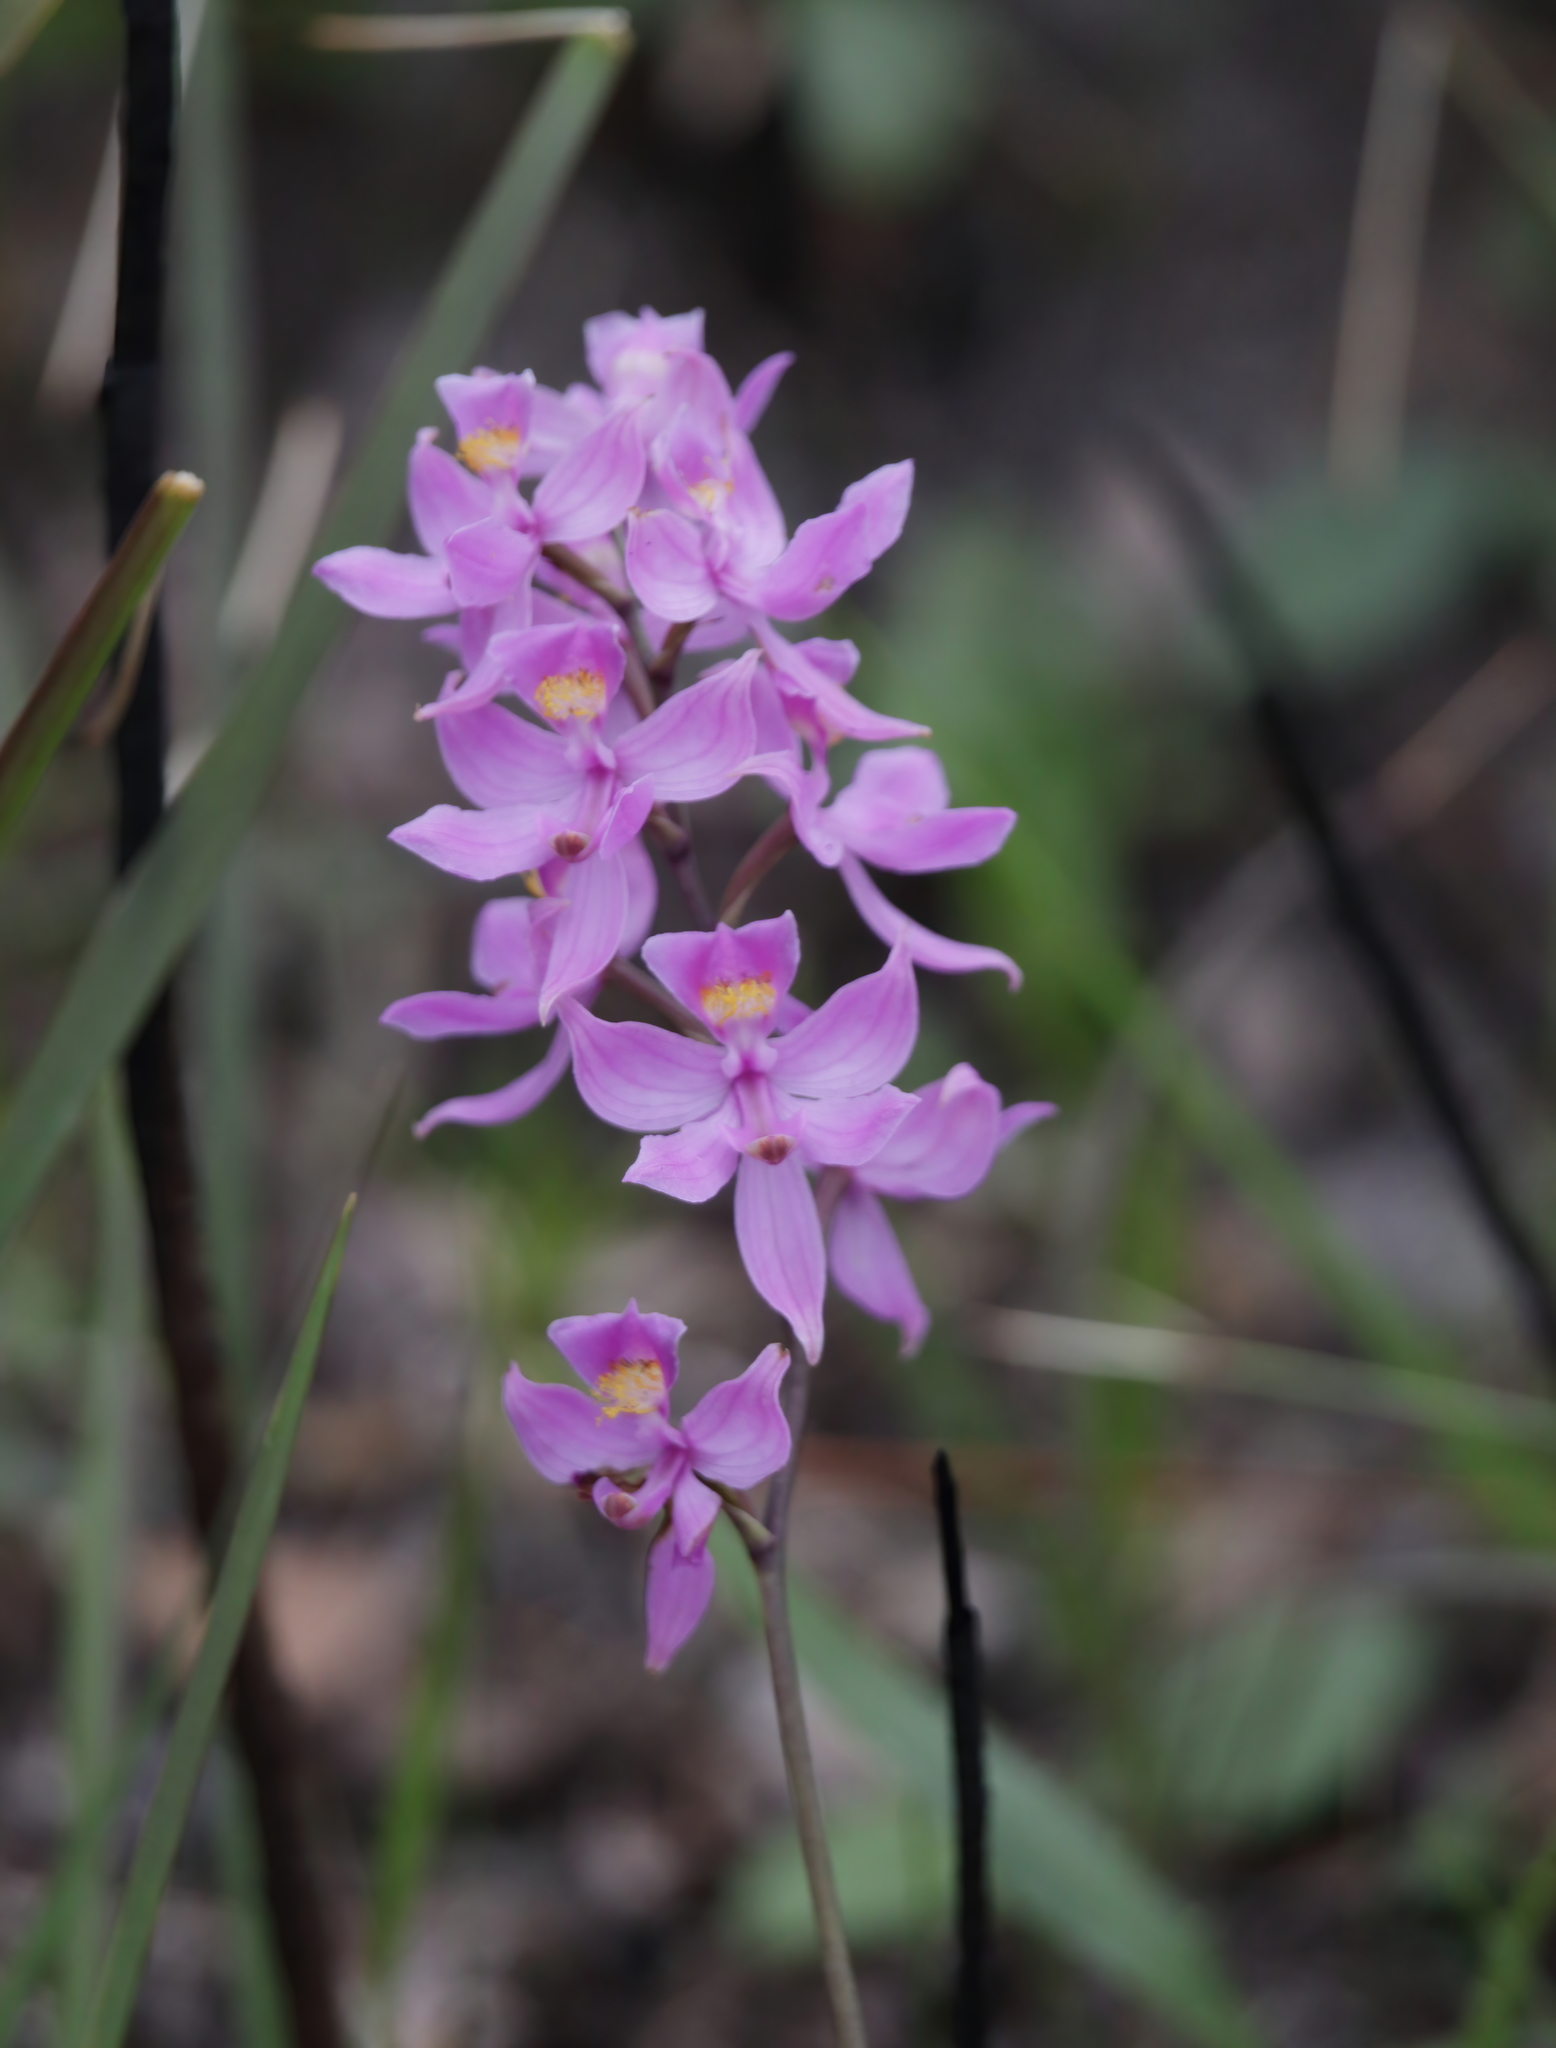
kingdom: Plantae
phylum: Tracheophyta
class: Liliopsida
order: Asparagales
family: Orchidaceae
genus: Calopogon
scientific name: Calopogon multiflorus
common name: Many-flowered grass-pink orchid
